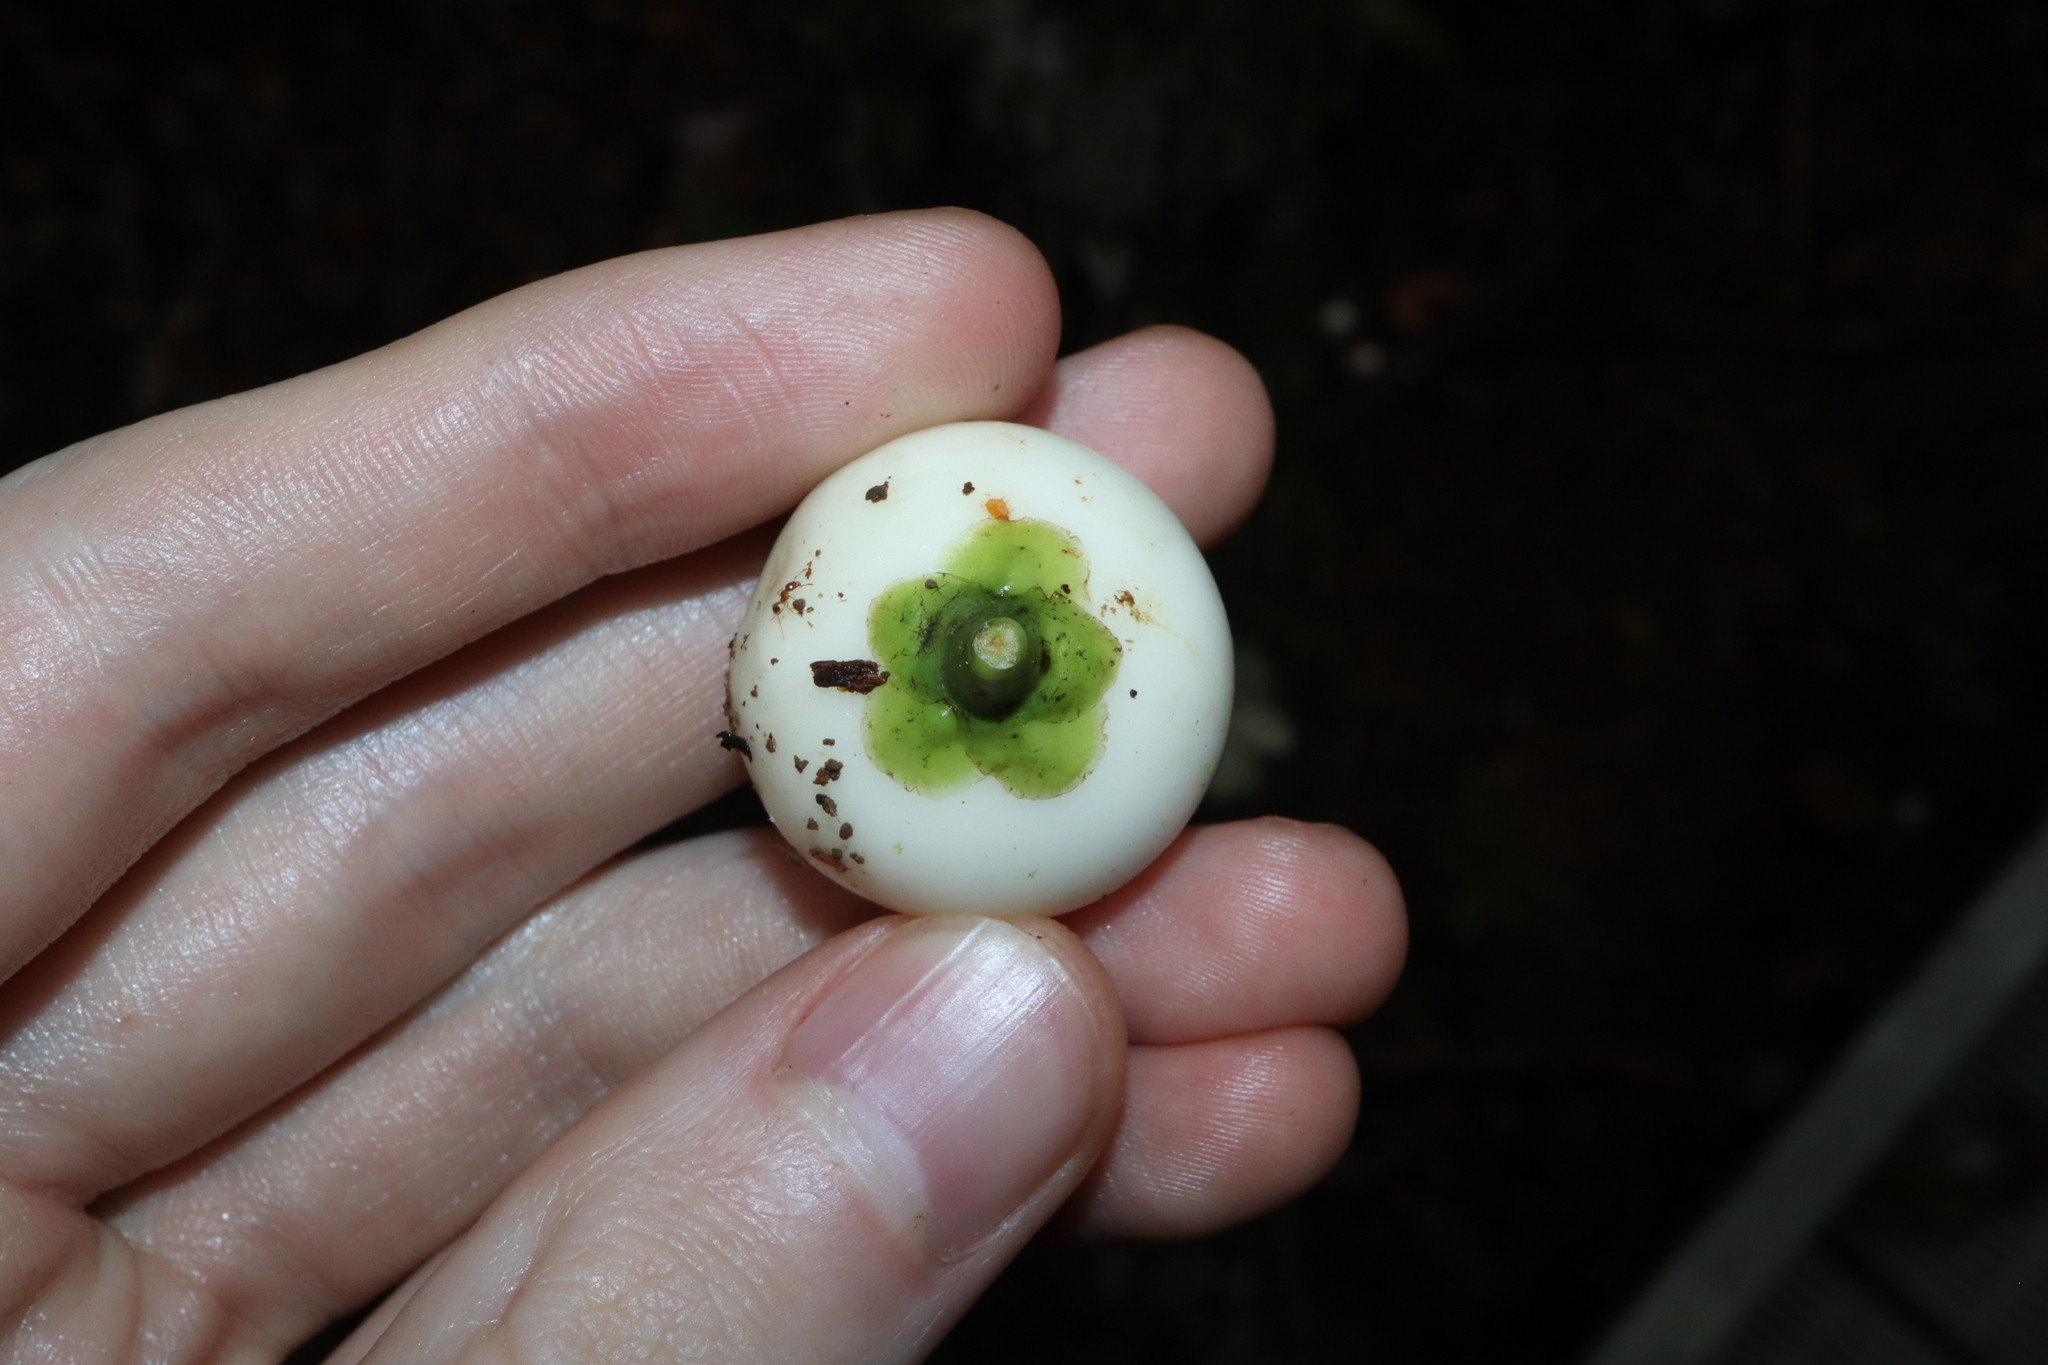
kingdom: Plantae
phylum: Tracheophyta
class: Magnoliopsida
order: Gentianales
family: Gentianaceae
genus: Fagraea
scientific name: Fagraea gracilipes
